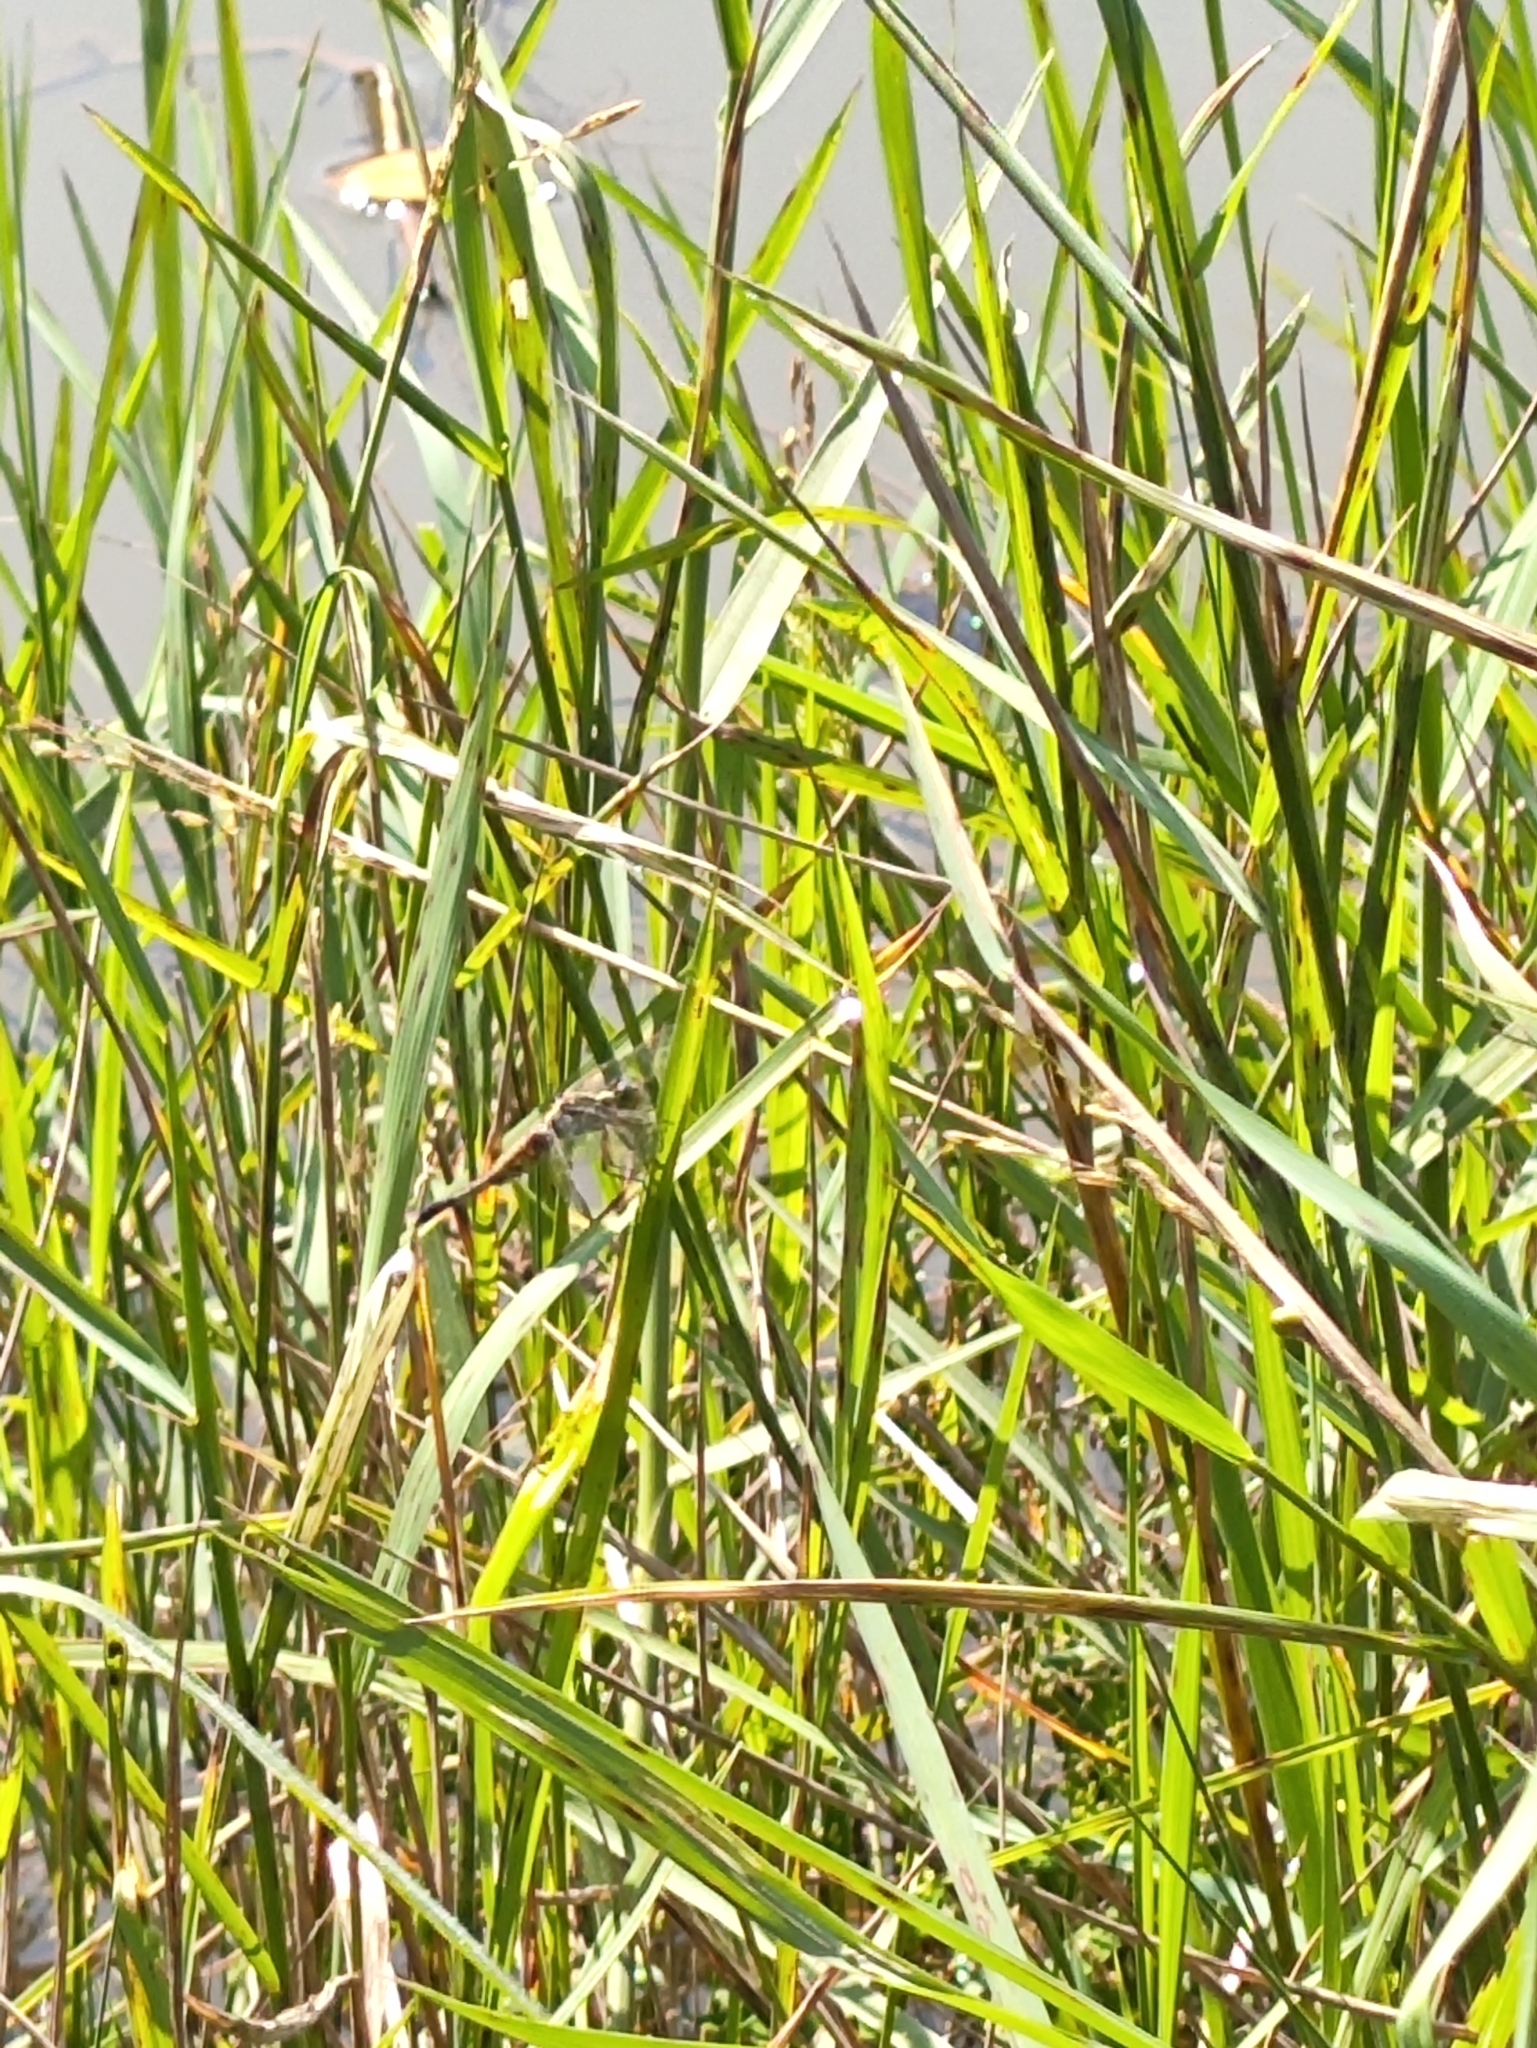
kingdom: Animalia
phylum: Arthropoda
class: Insecta
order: Odonata
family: Libellulidae
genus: Acisoma
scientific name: Acisoma panorpoides
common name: Asian pintail
